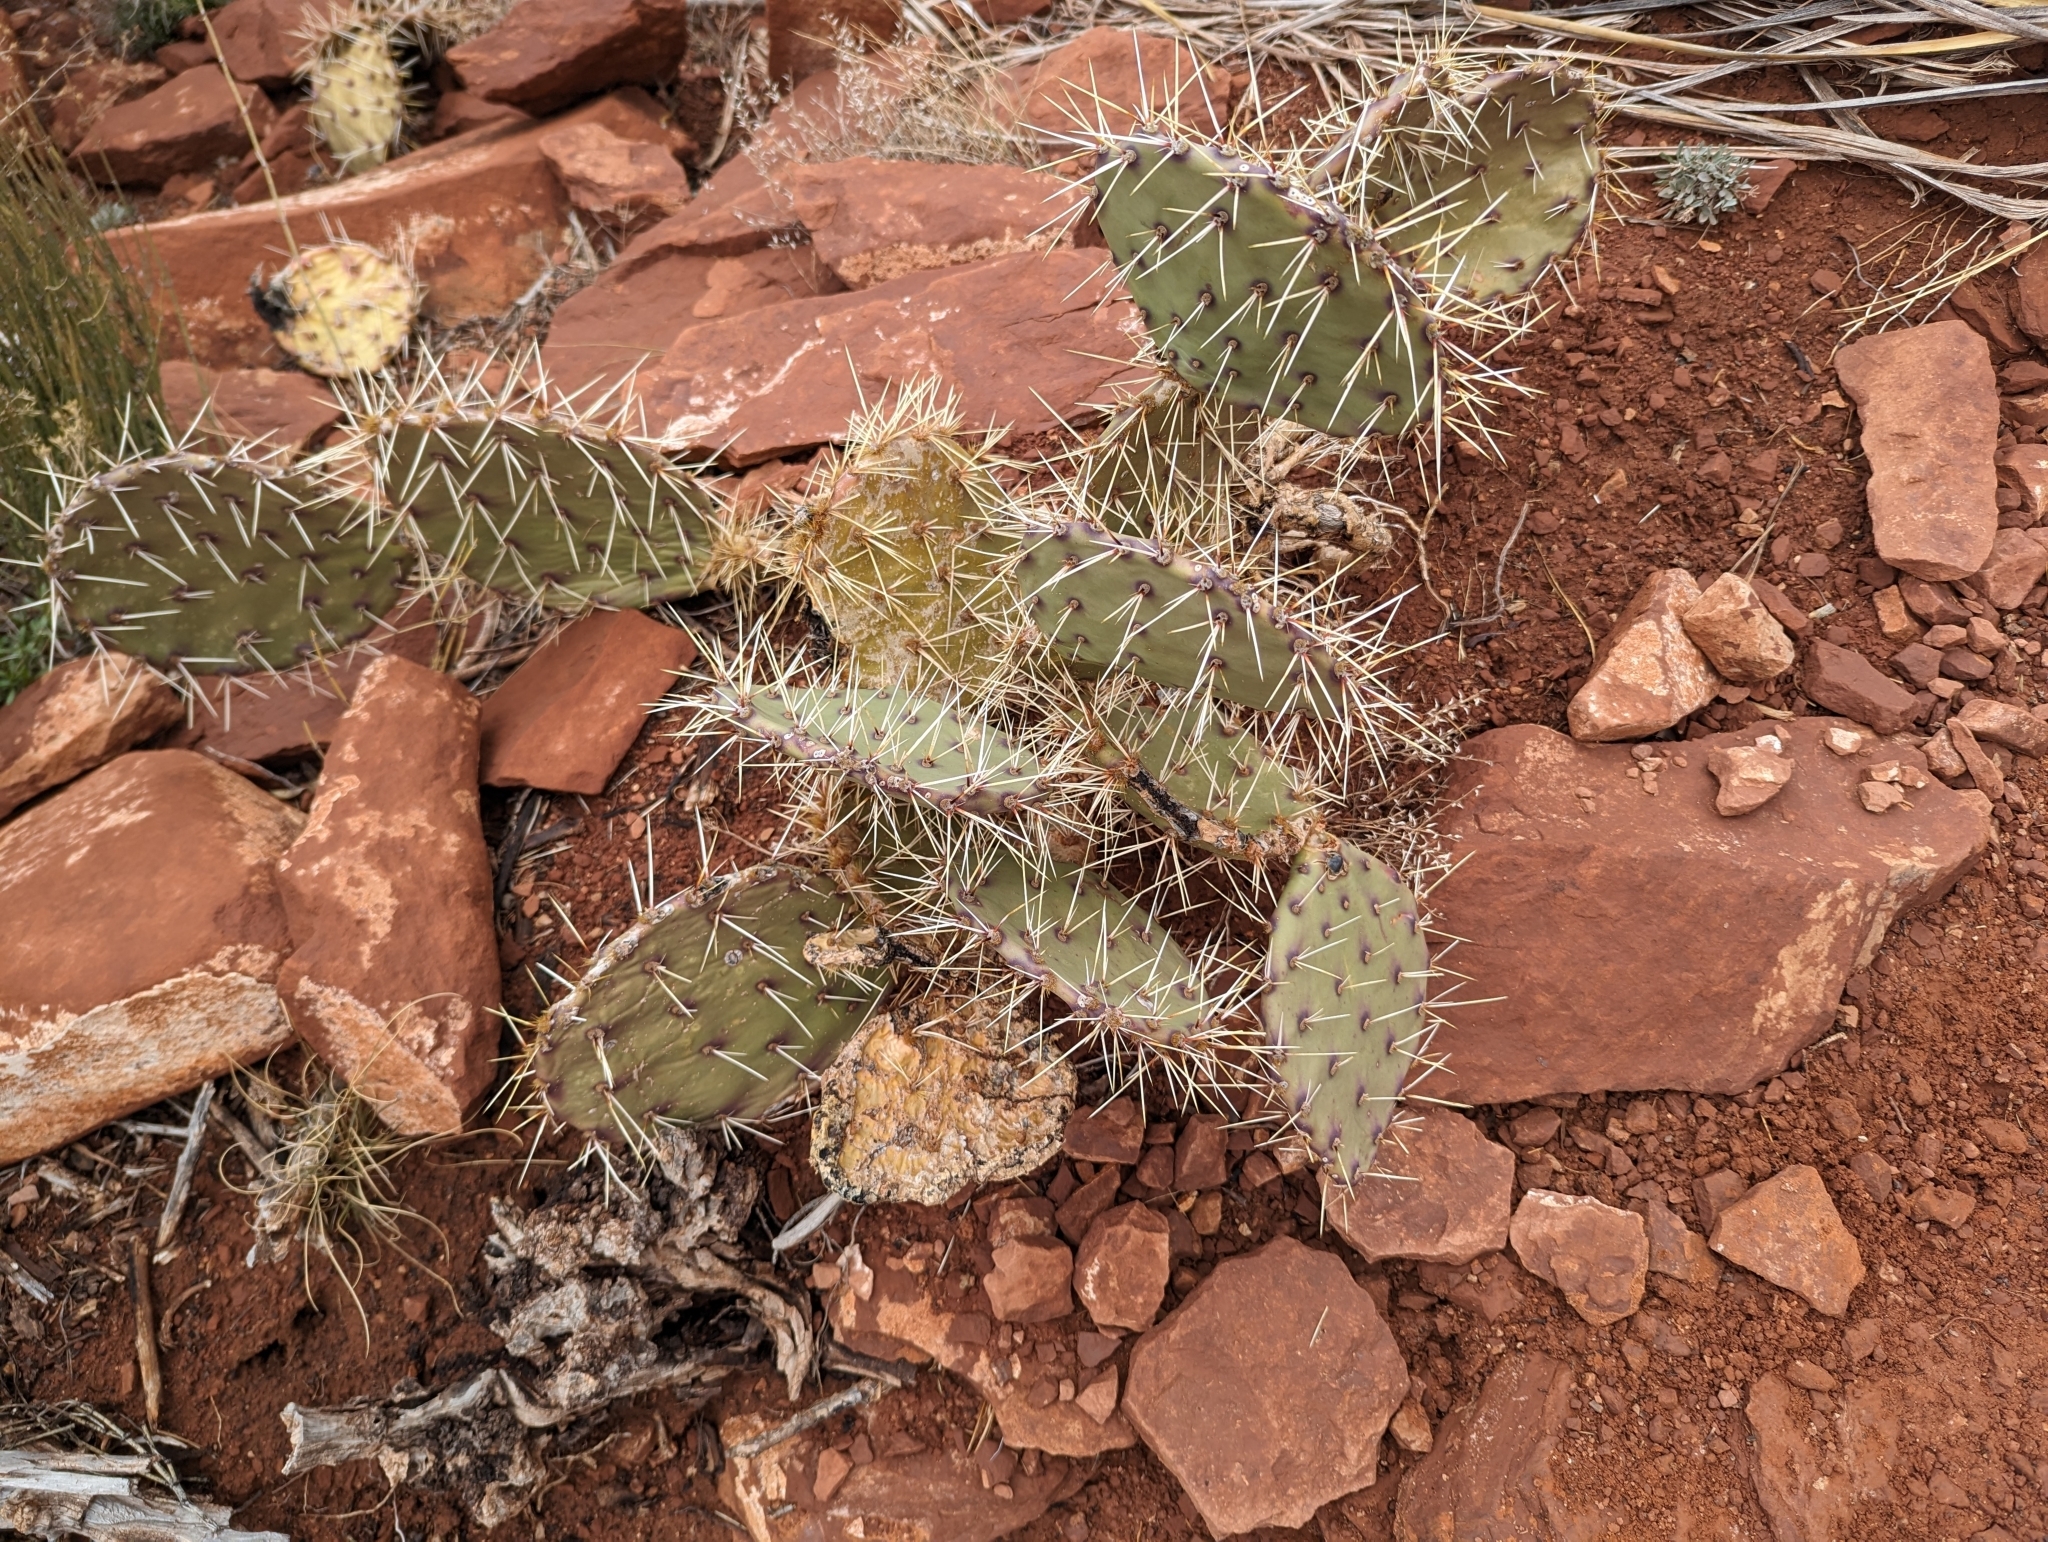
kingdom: Plantae
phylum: Tracheophyta
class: Magnoliopsida
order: Caryophyllales
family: Cactaceae
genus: Opuntia
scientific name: Opuntia phaeacantha
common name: New mexico prickly-pear
